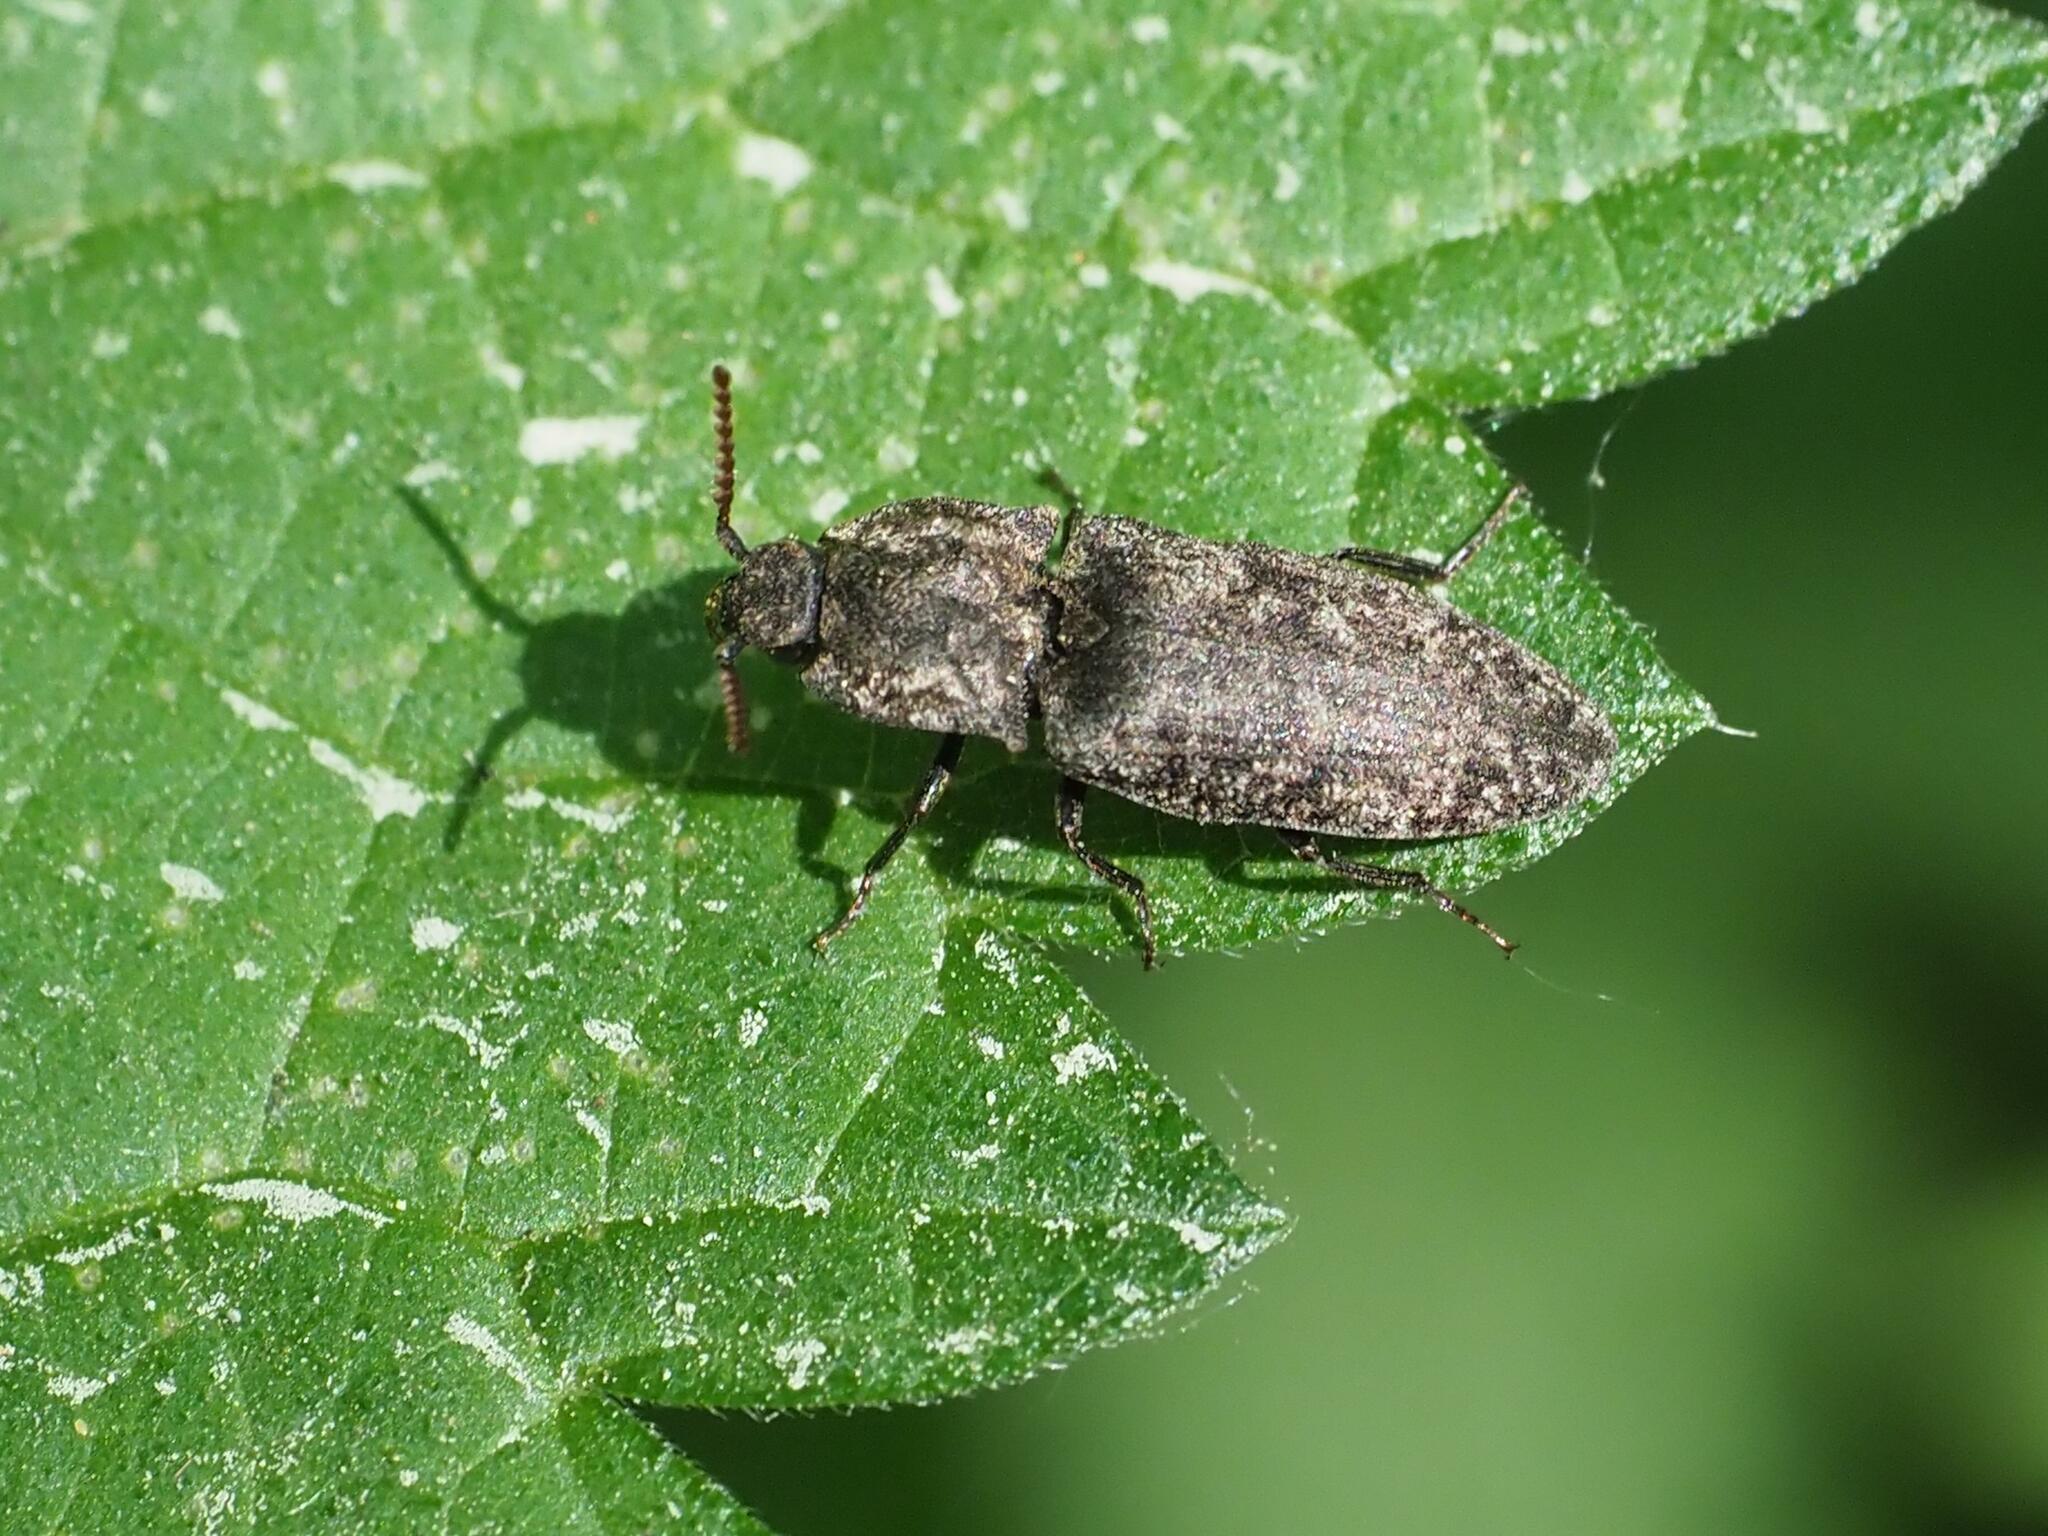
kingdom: Animalia
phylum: Arthropoda
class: Insecta
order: Coleoptera
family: Elateridae
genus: Agrypnus
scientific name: Agrypnus murinus
